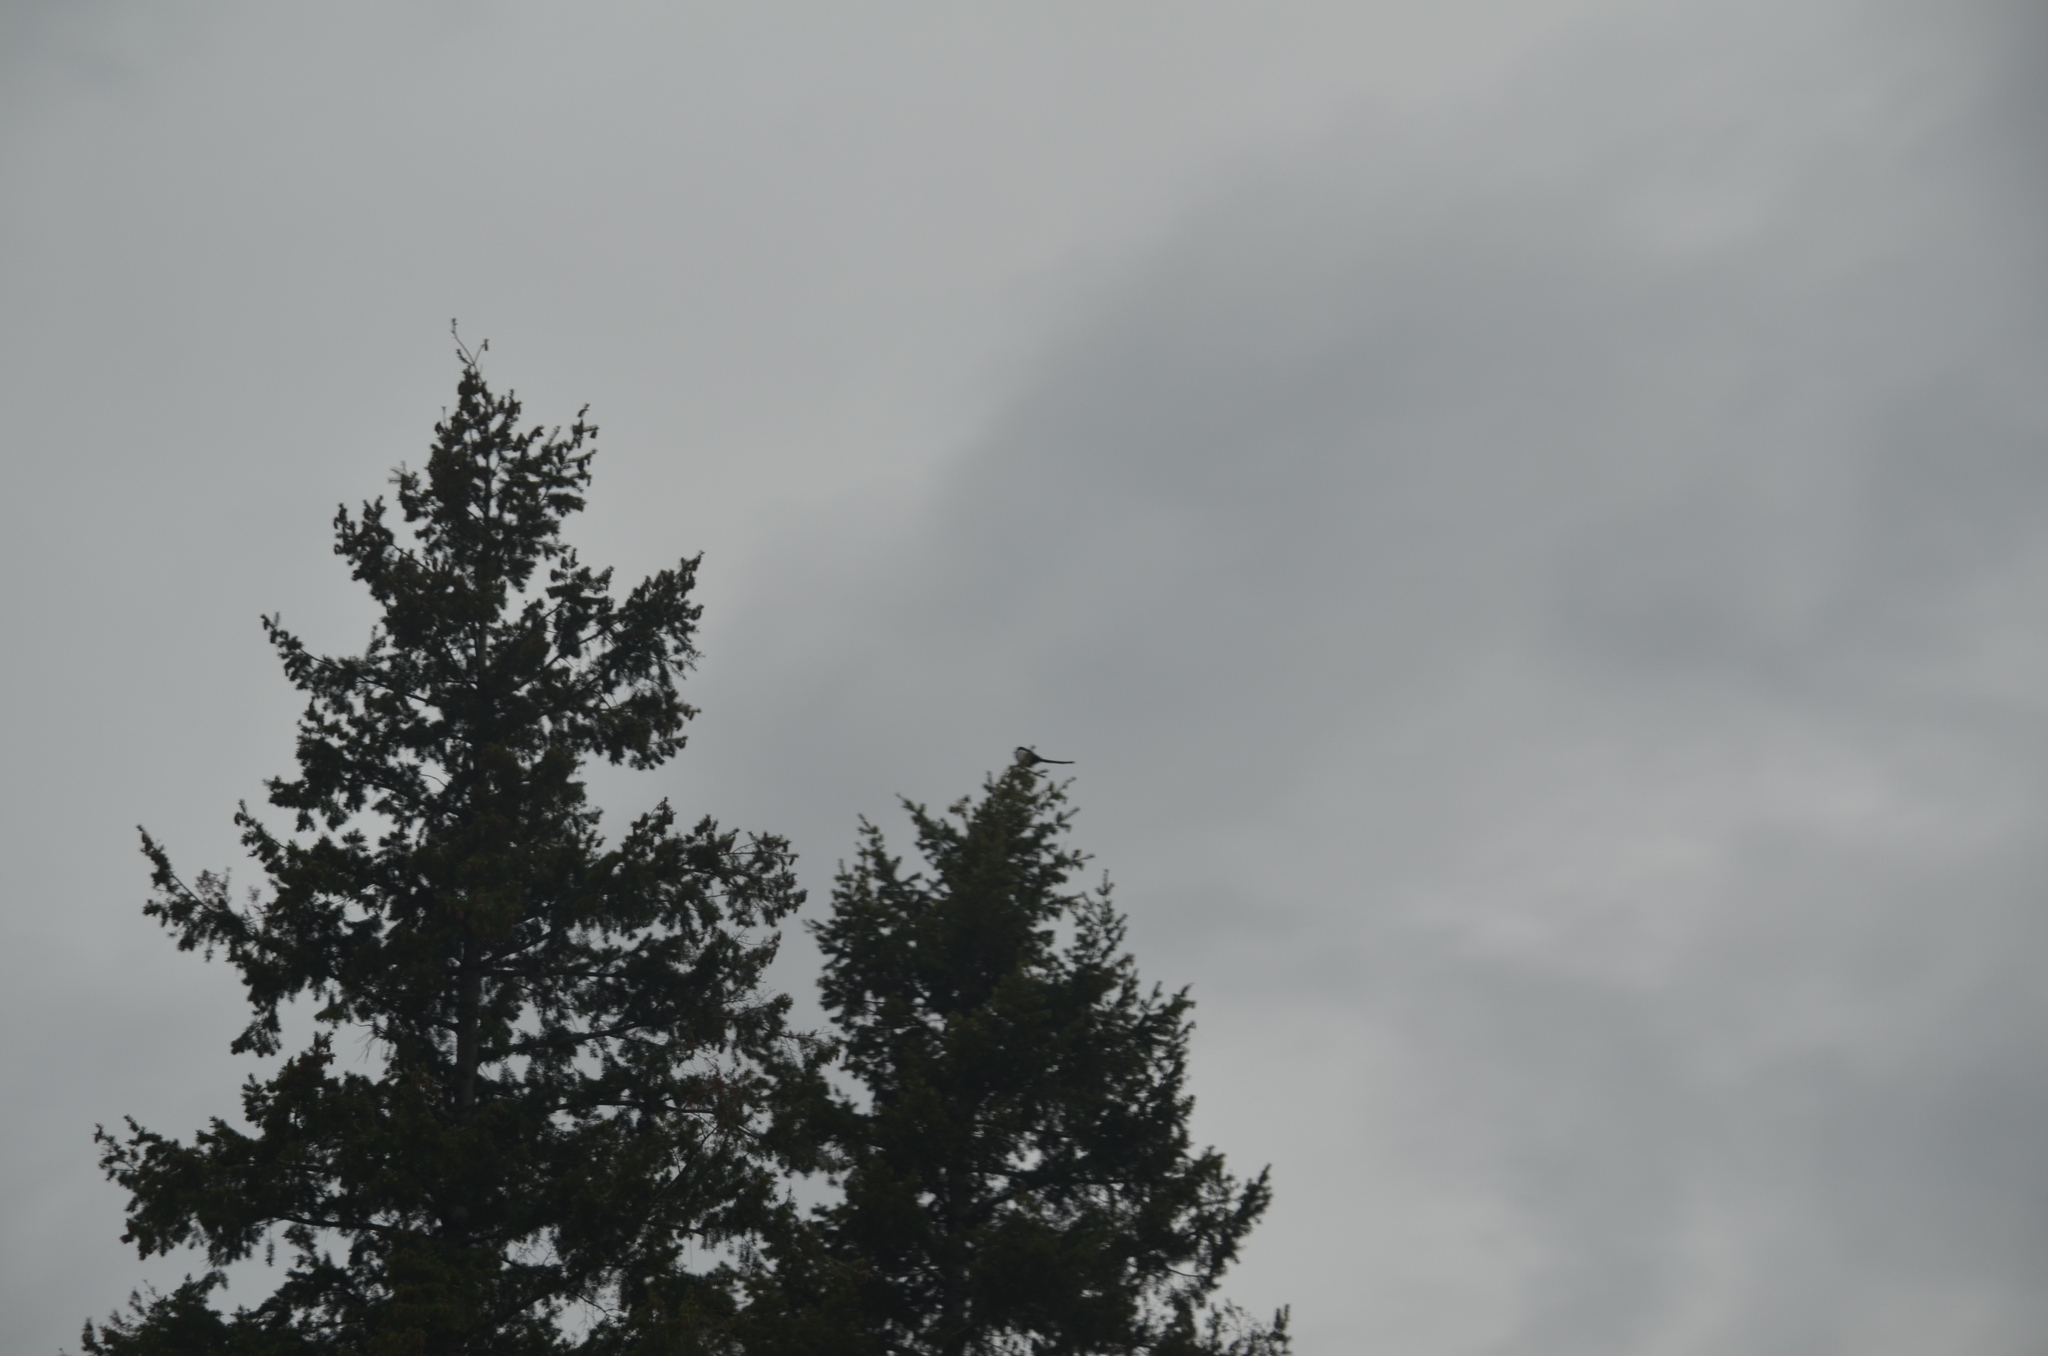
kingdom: Animalia
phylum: Chordata
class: Aves
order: Passeriformes
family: Corvidae
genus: Pica
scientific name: Pica hudsonia
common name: Black-billed magpie
